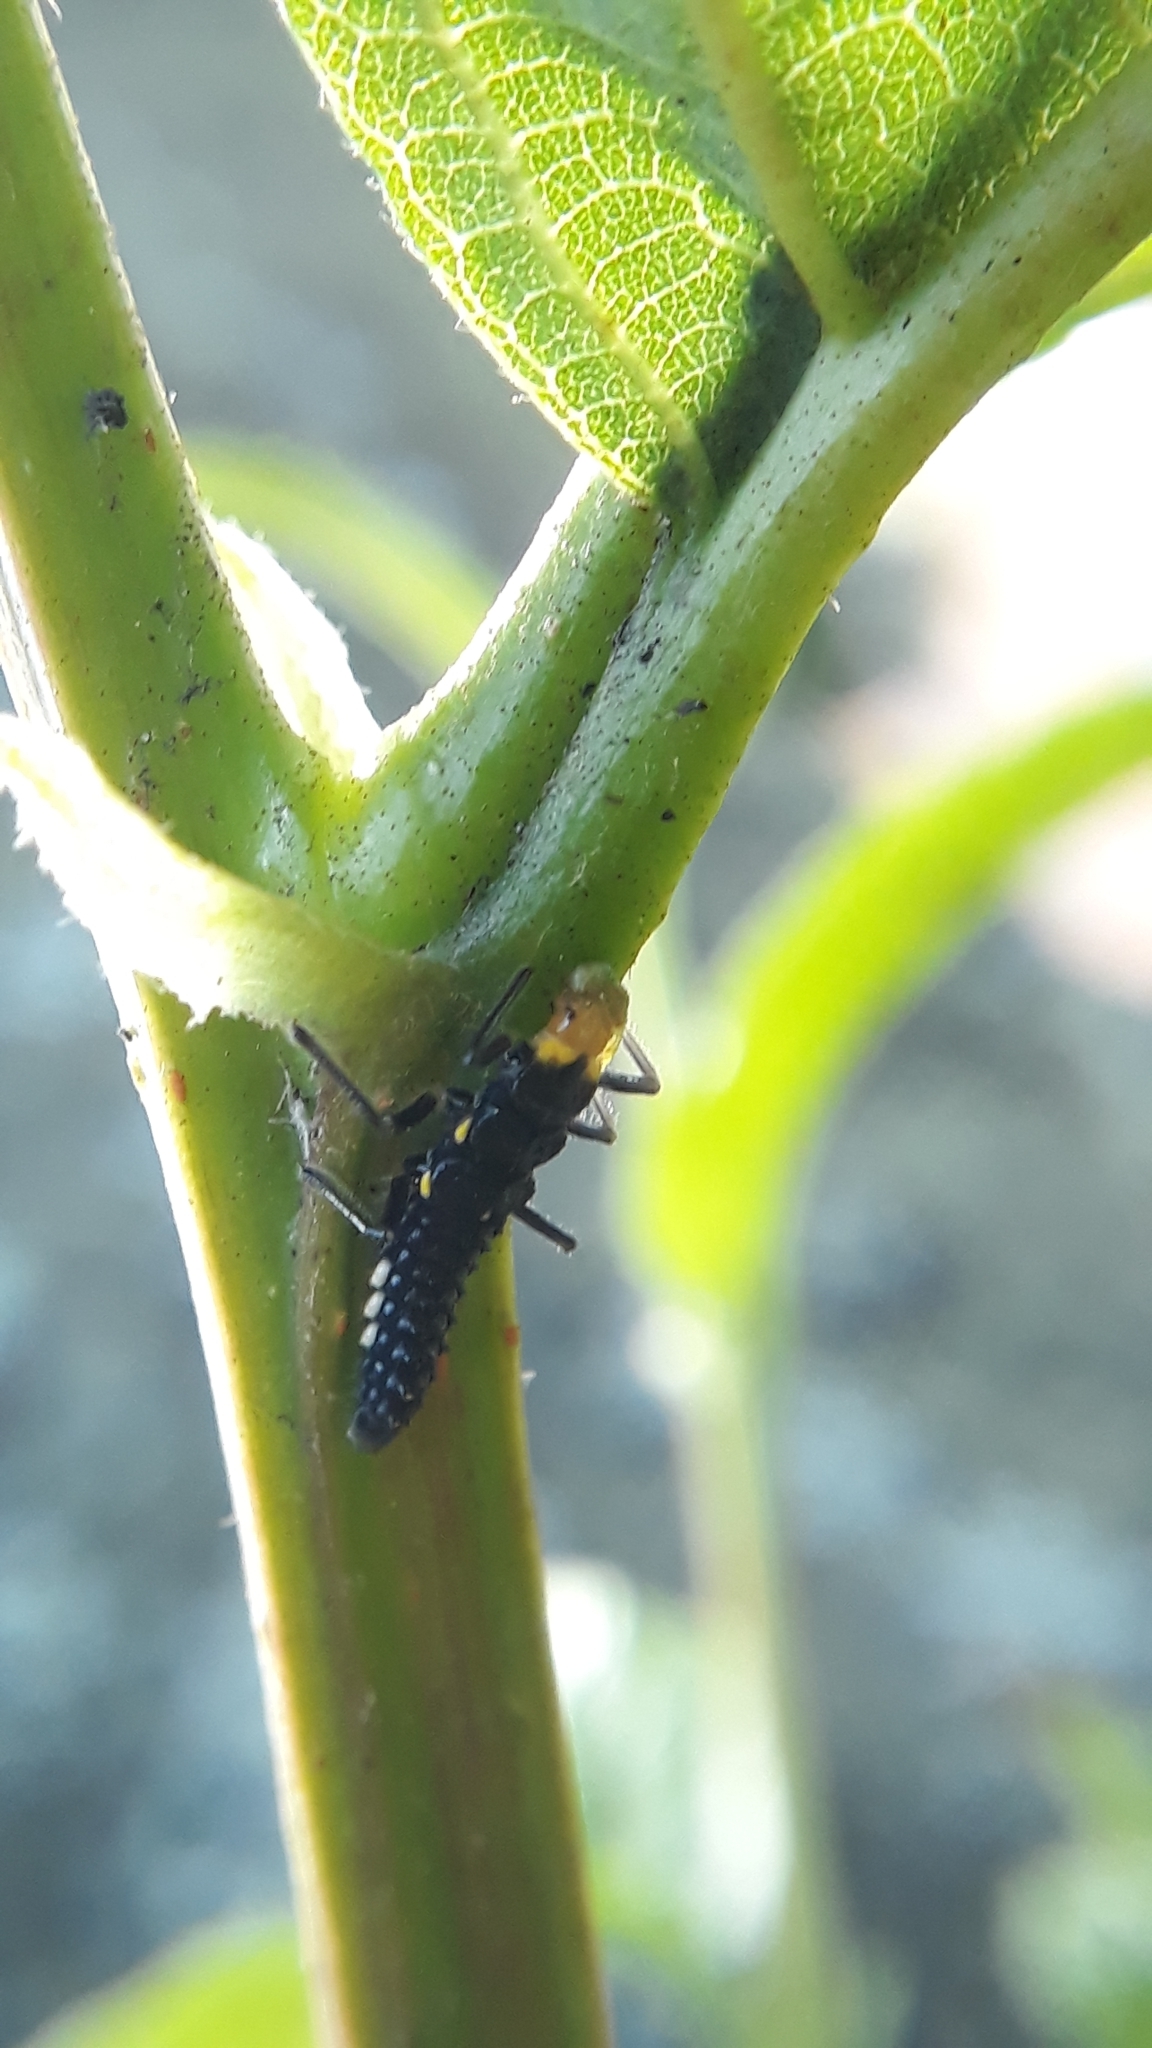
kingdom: Animalia
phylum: Arthropoda
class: Insecta
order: Coleoptera
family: Coccinellidae
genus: Neda
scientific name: Neda norrisi
